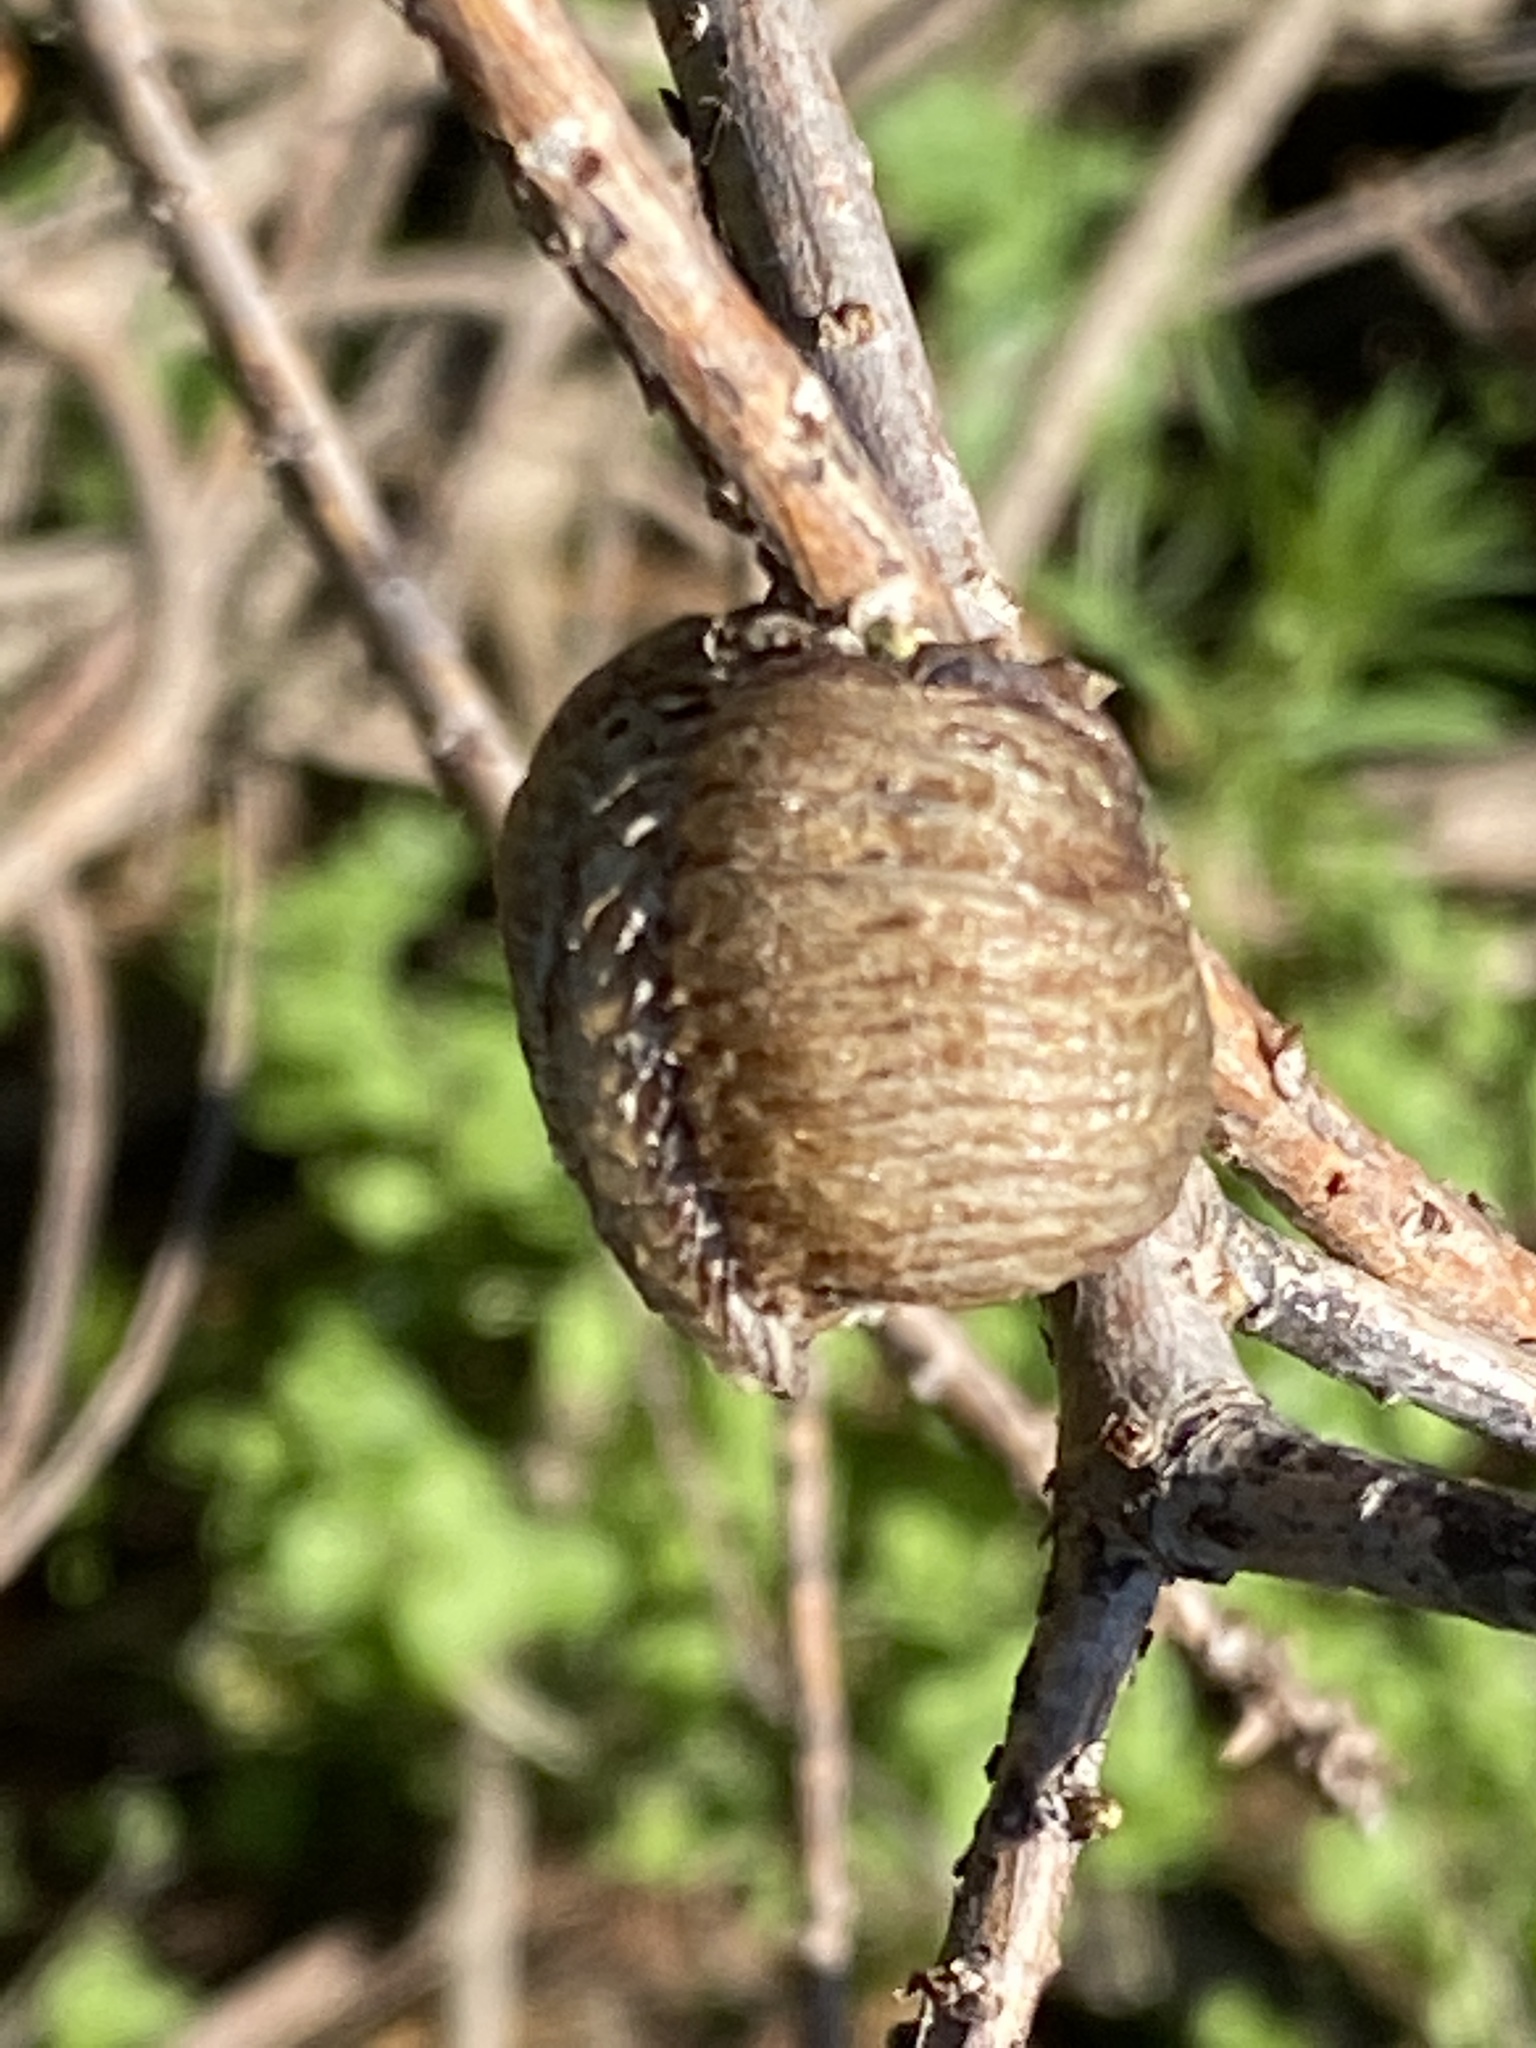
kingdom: Animalia
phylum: Arthropoda
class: Insecta
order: Mantodea
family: Mantidae
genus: Hierodula
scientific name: Hierodula transcaucasica
